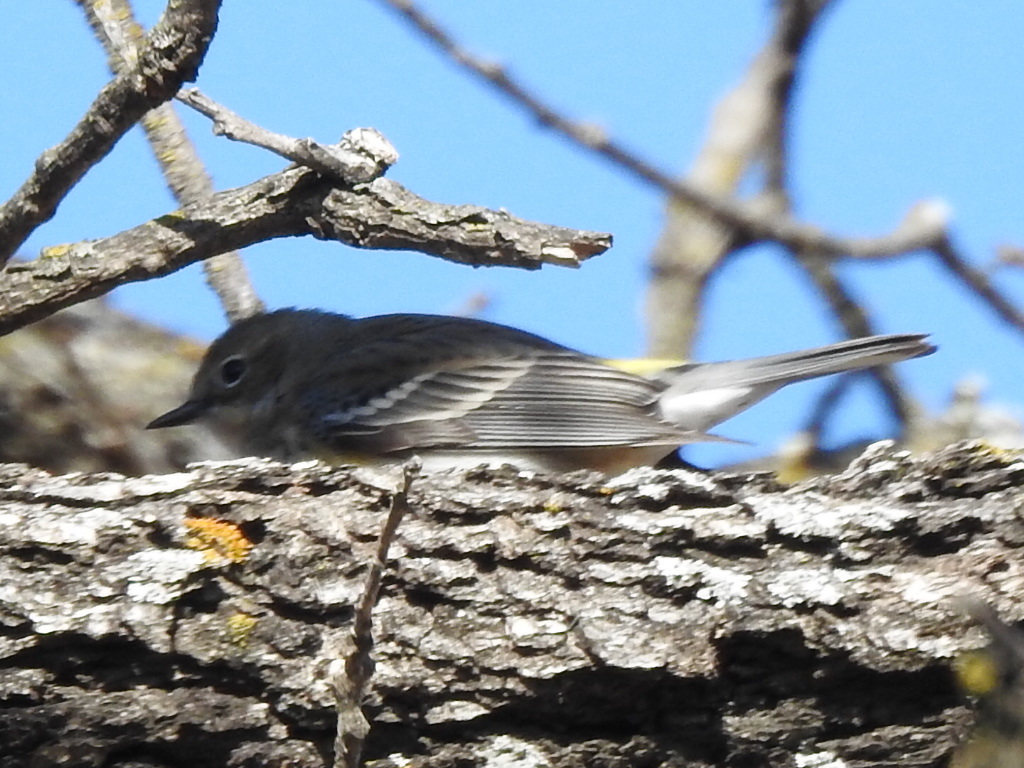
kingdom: Animalia
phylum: Chordata
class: Aves
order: Passeriformes
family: Parulidae
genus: Setophaga
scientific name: Setophaga coronata
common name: Myrtle warbler
